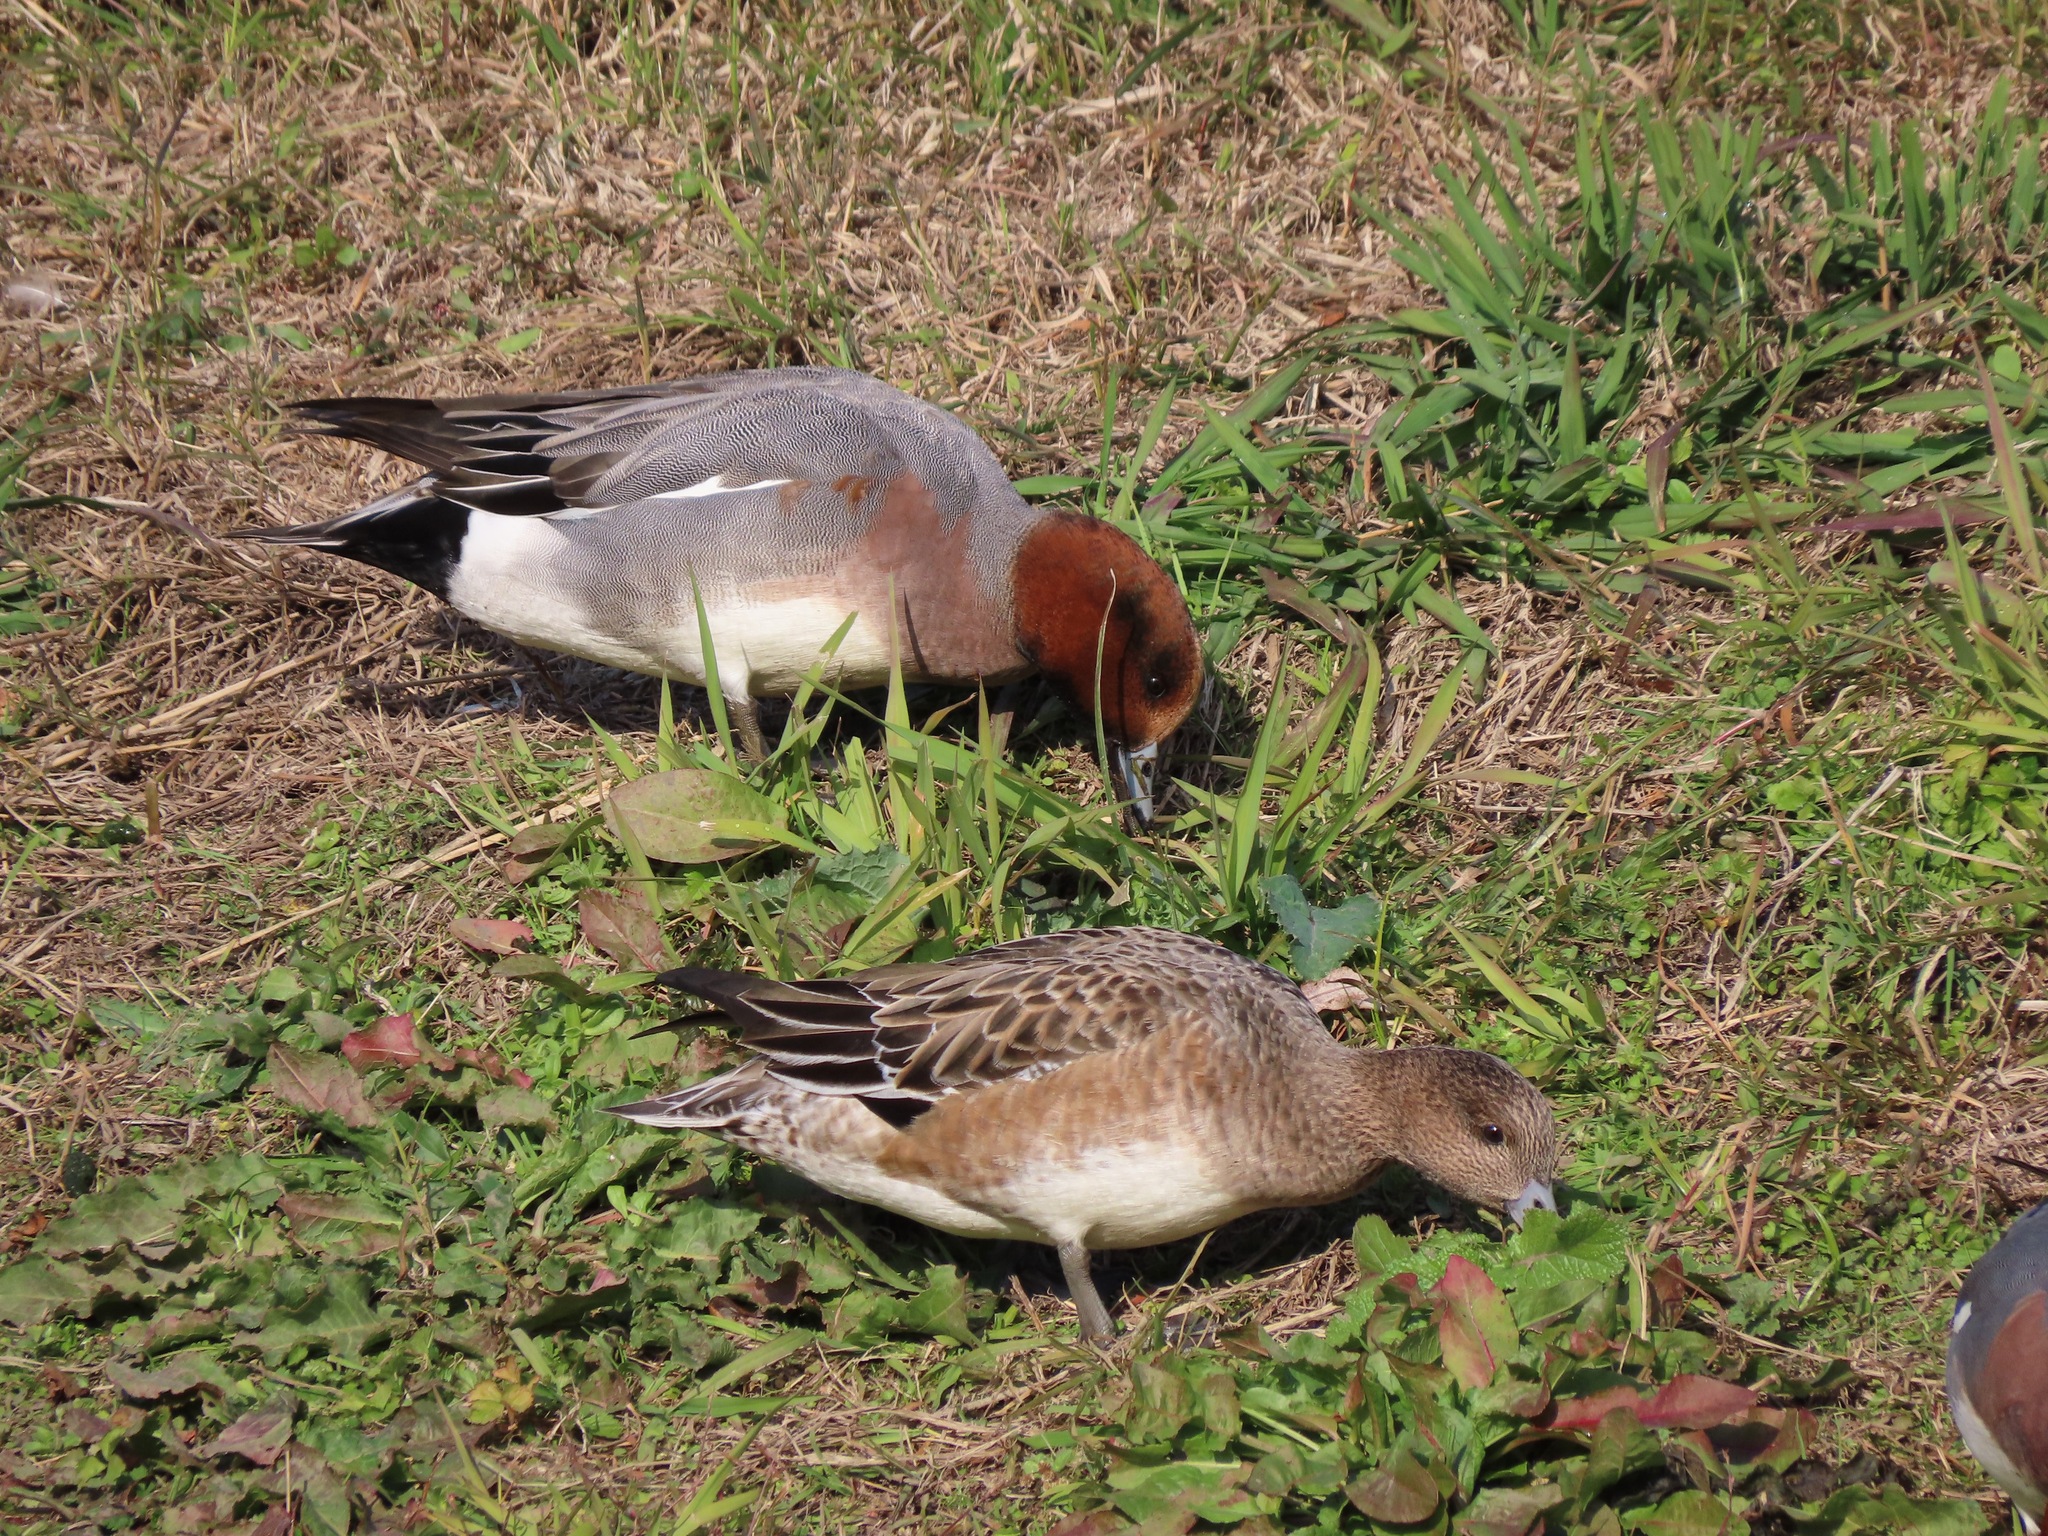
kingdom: Animalia
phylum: Chordata
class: Aves
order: Anseriformes
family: Anatidae
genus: Mareca
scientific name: Mareca penelope
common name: Eurasian wigeon
